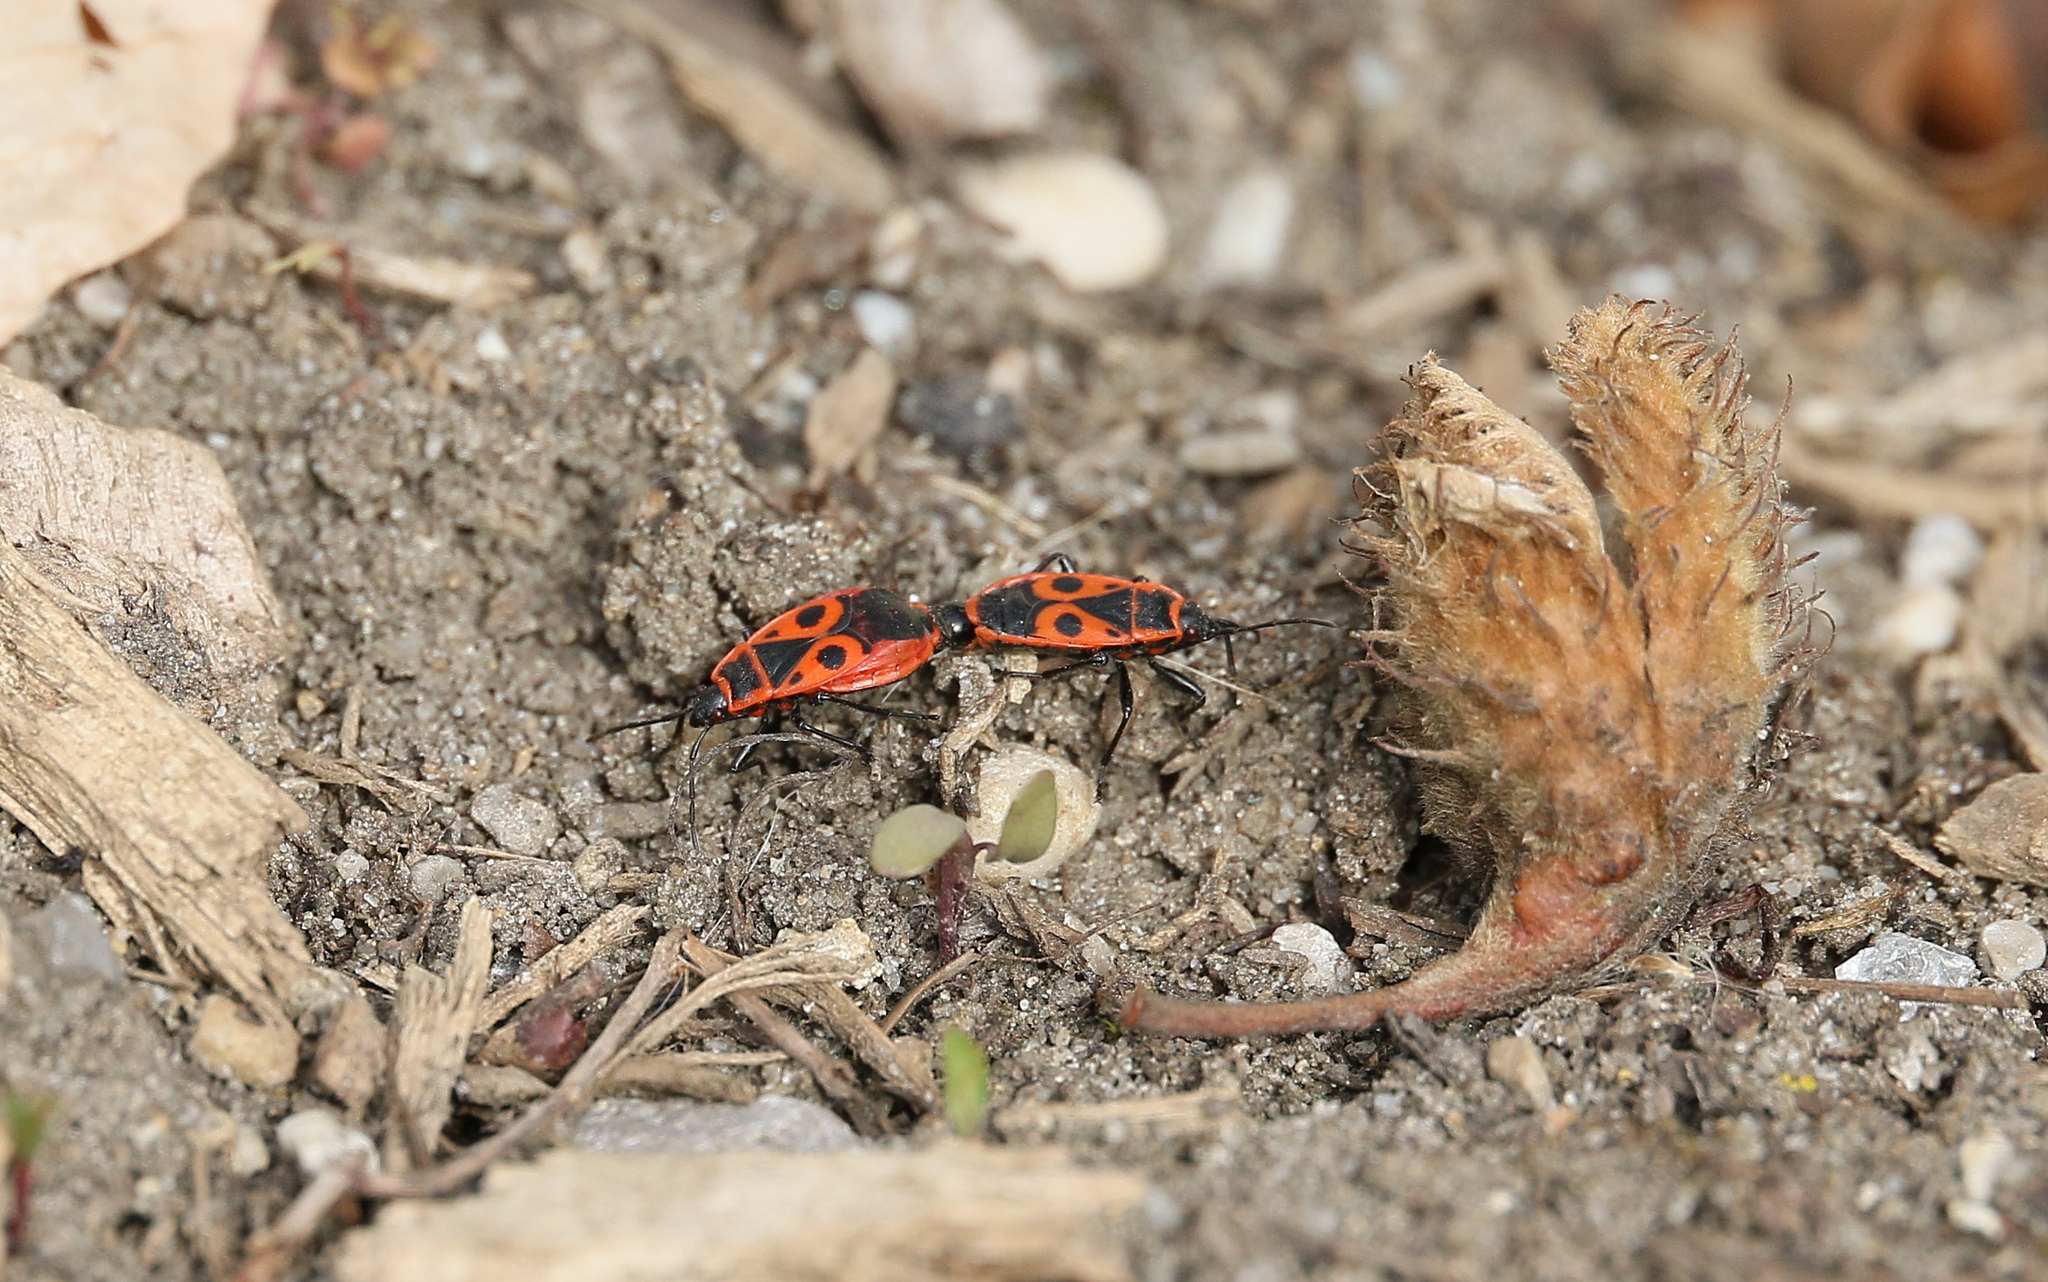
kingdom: Animalia
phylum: Arthropoda
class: Insecta
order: Hemiptera
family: Pyrrhocoridae
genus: Pyrrhocoris
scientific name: Pyrrhocoris apterus
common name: Firebug
